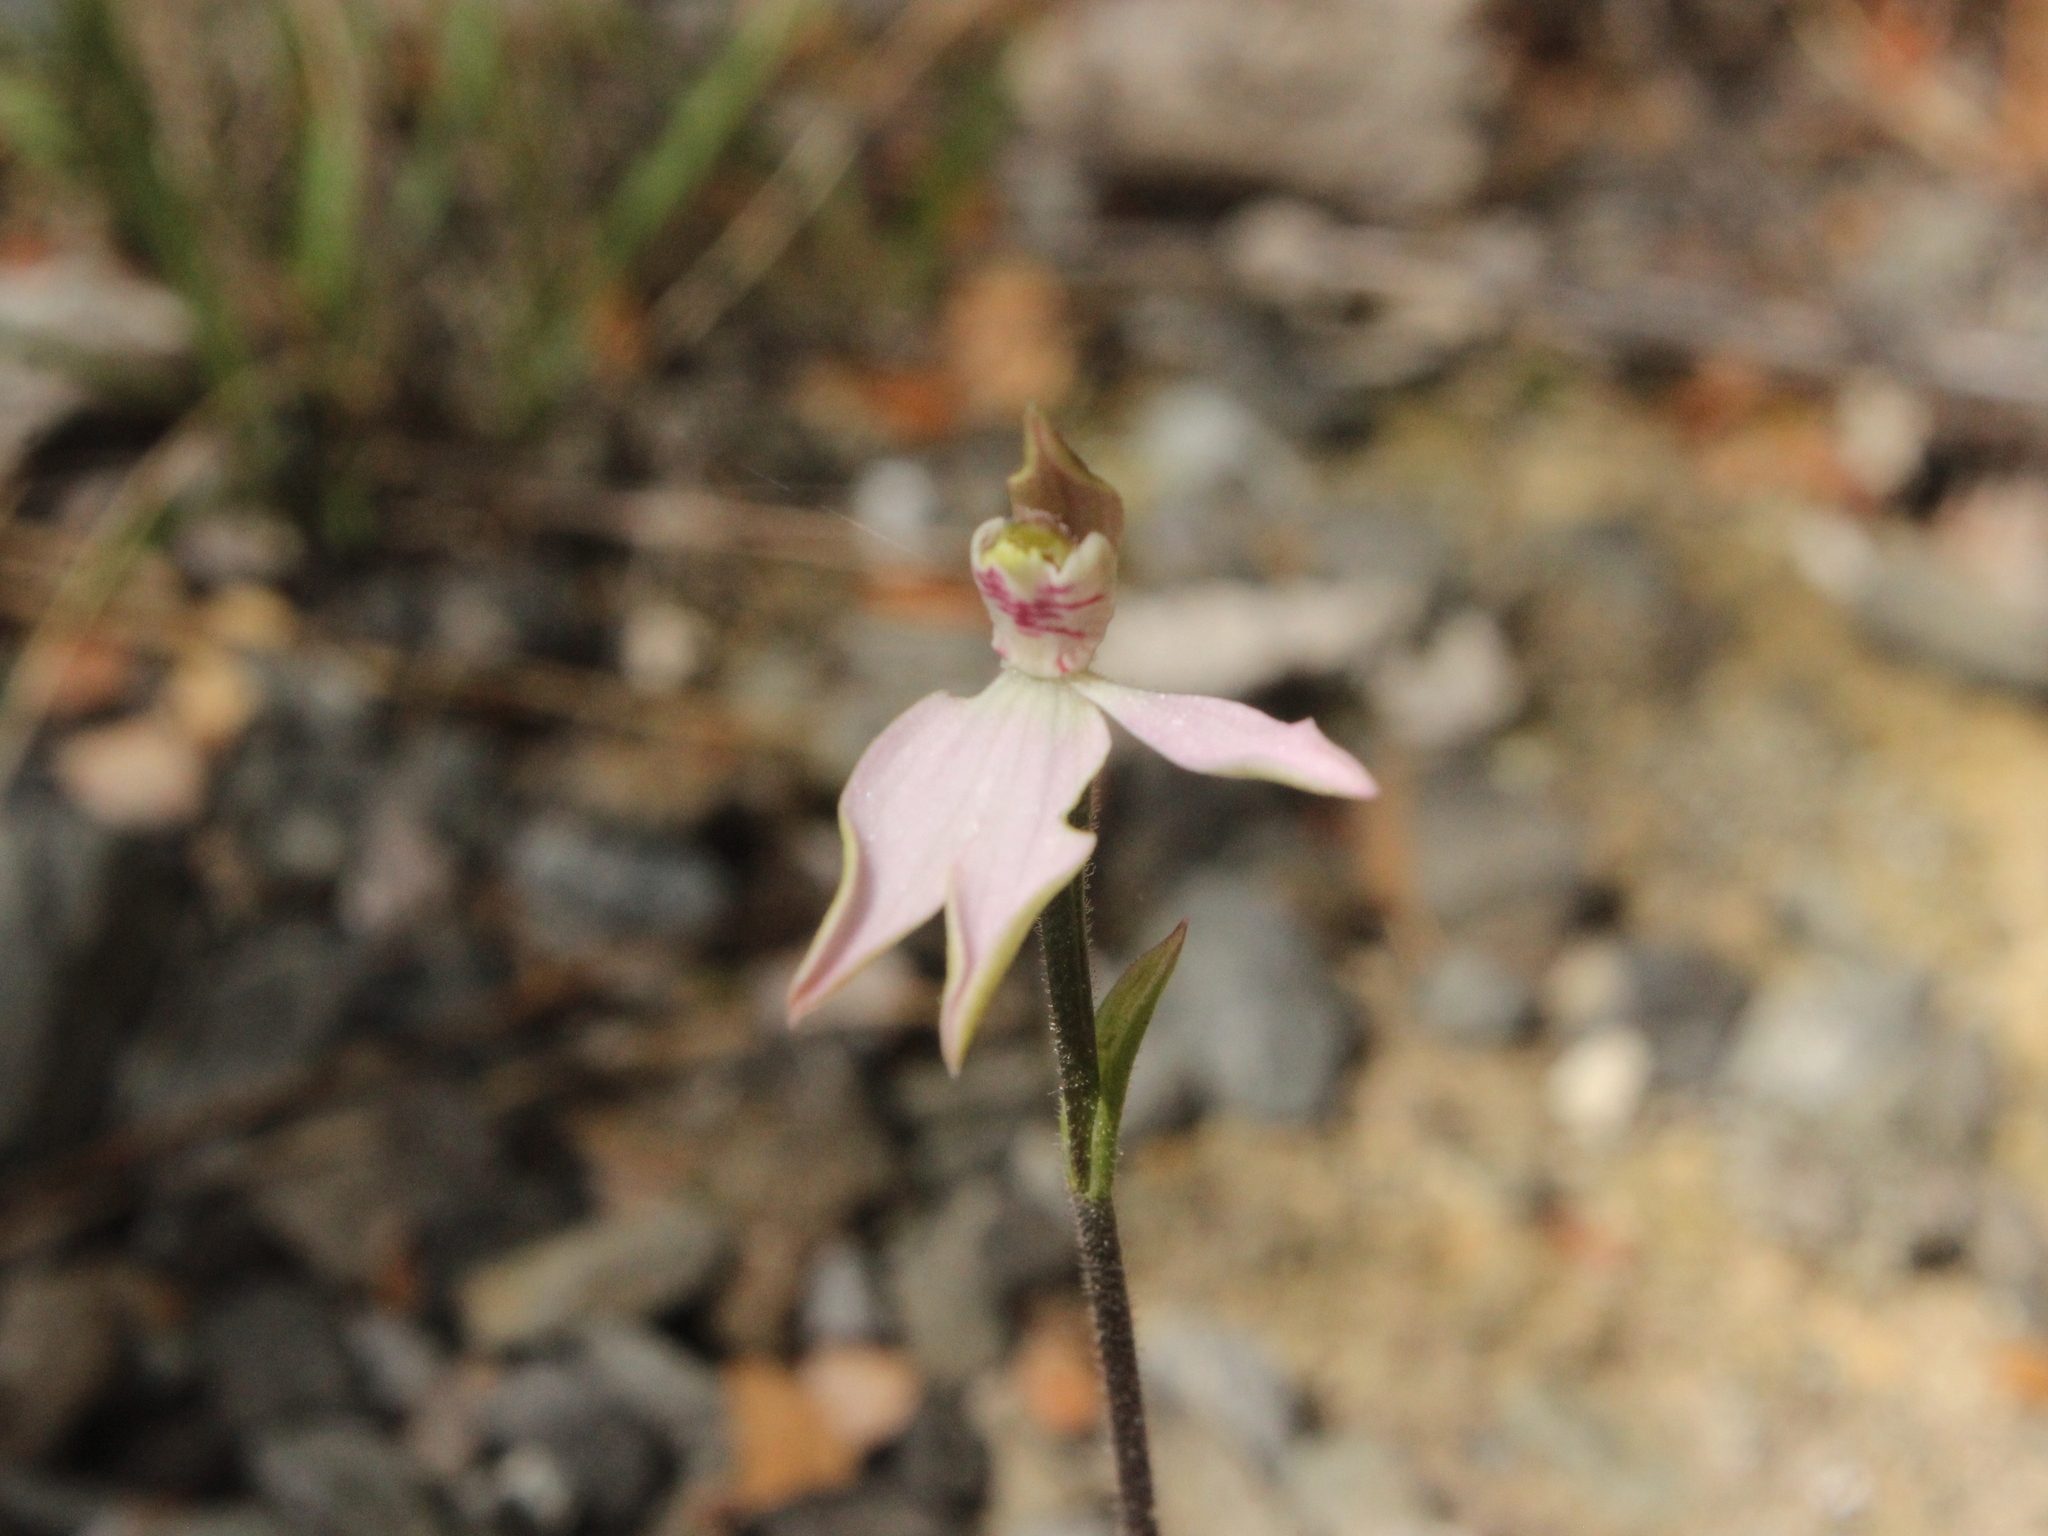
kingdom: Plantae
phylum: Tracheophyta
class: Liliopsida
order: Asparagales
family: Orchidaceae
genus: Caladenia
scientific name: Caladenia variegata
